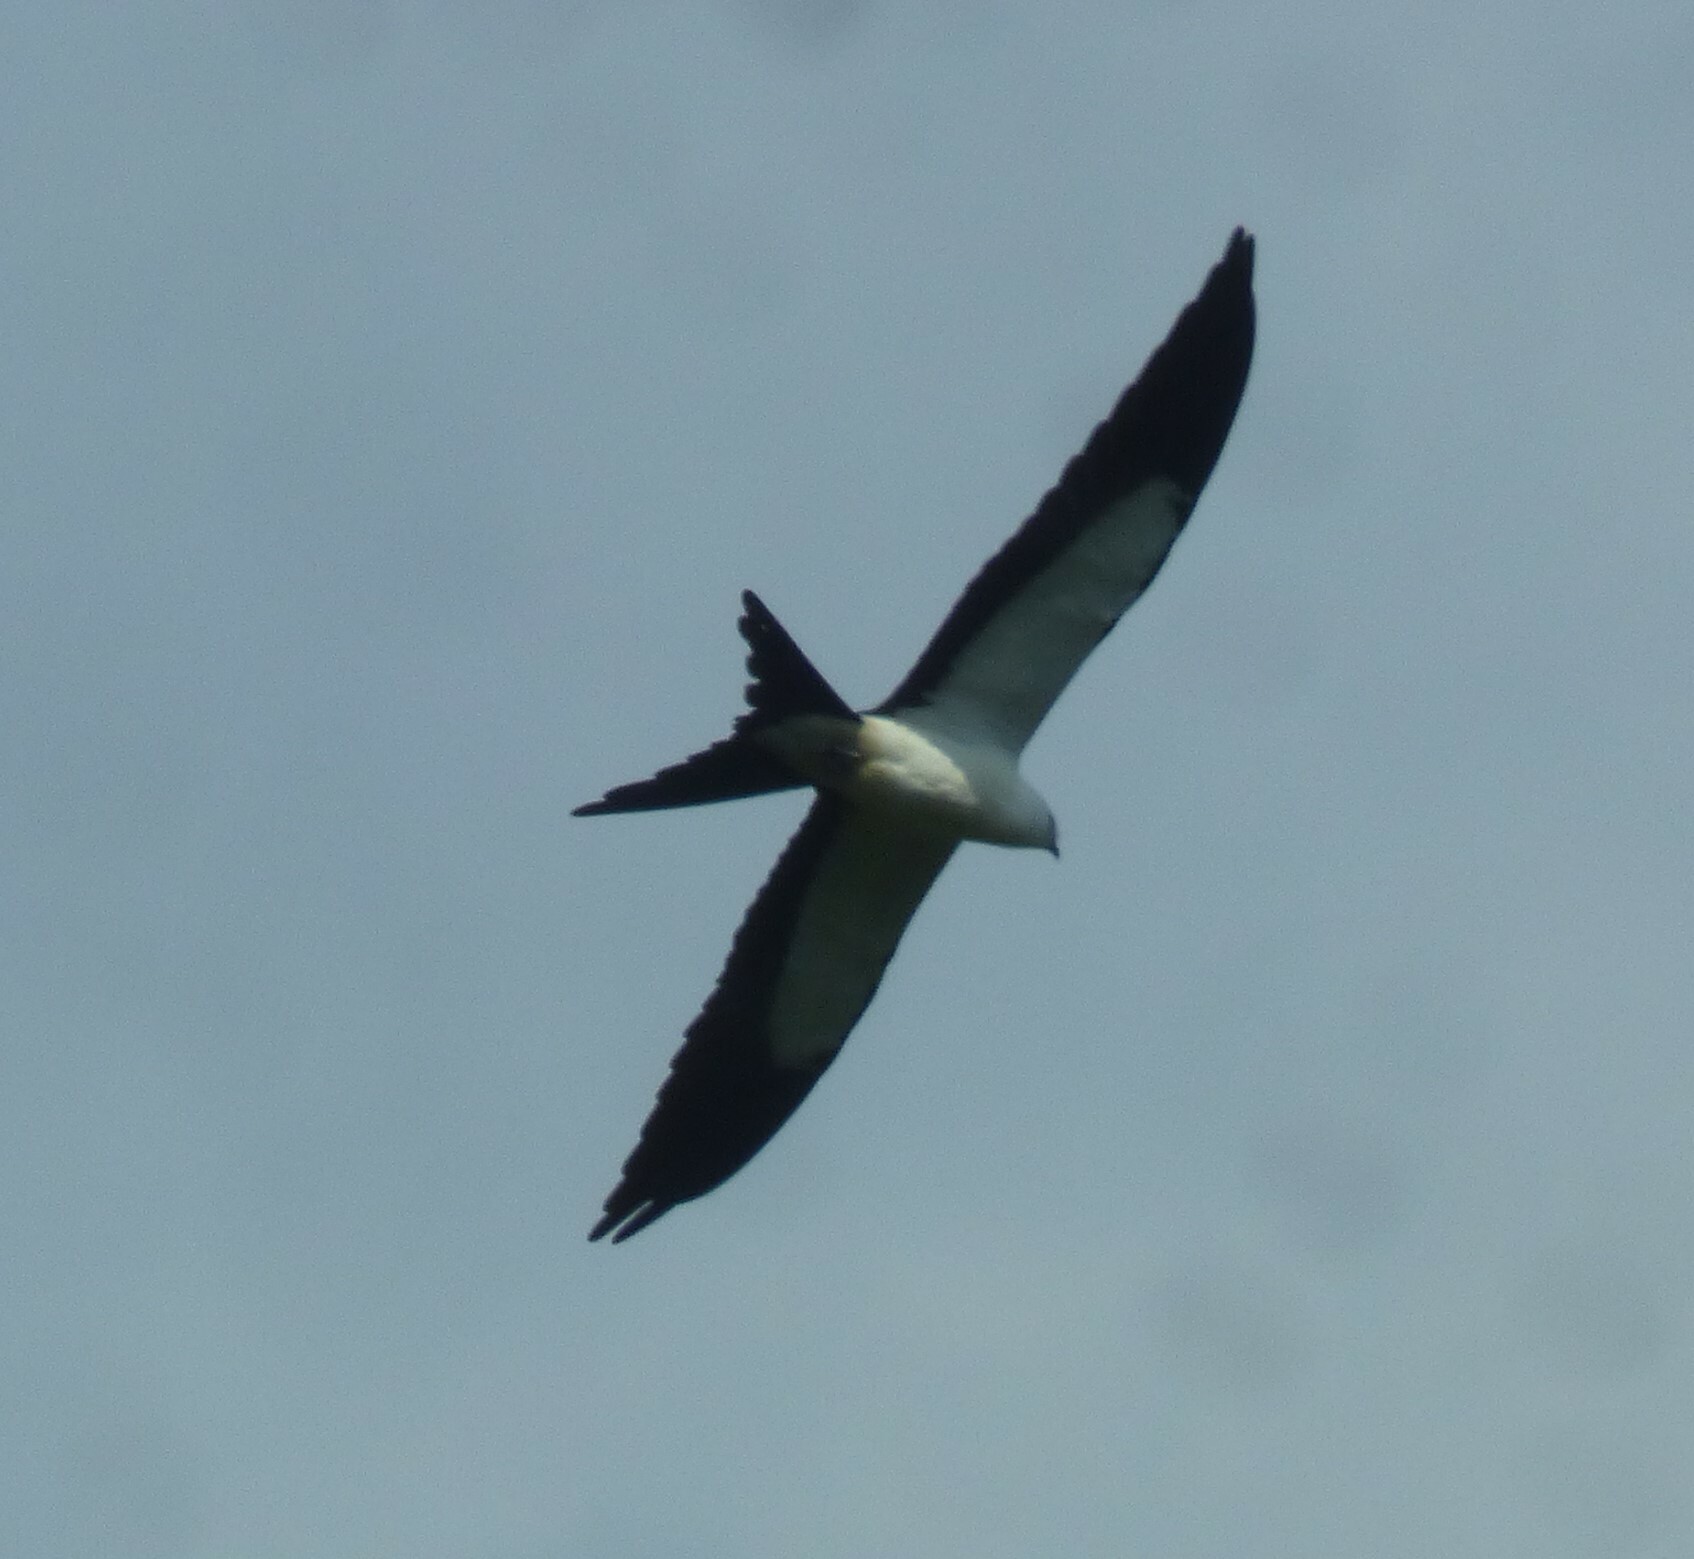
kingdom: Animalia
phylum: Chordata
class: Aves
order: Accipitriformes
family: Accipitridae
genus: Elanoides
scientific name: Elanoides forficatus
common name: Swallow-tailed kite
